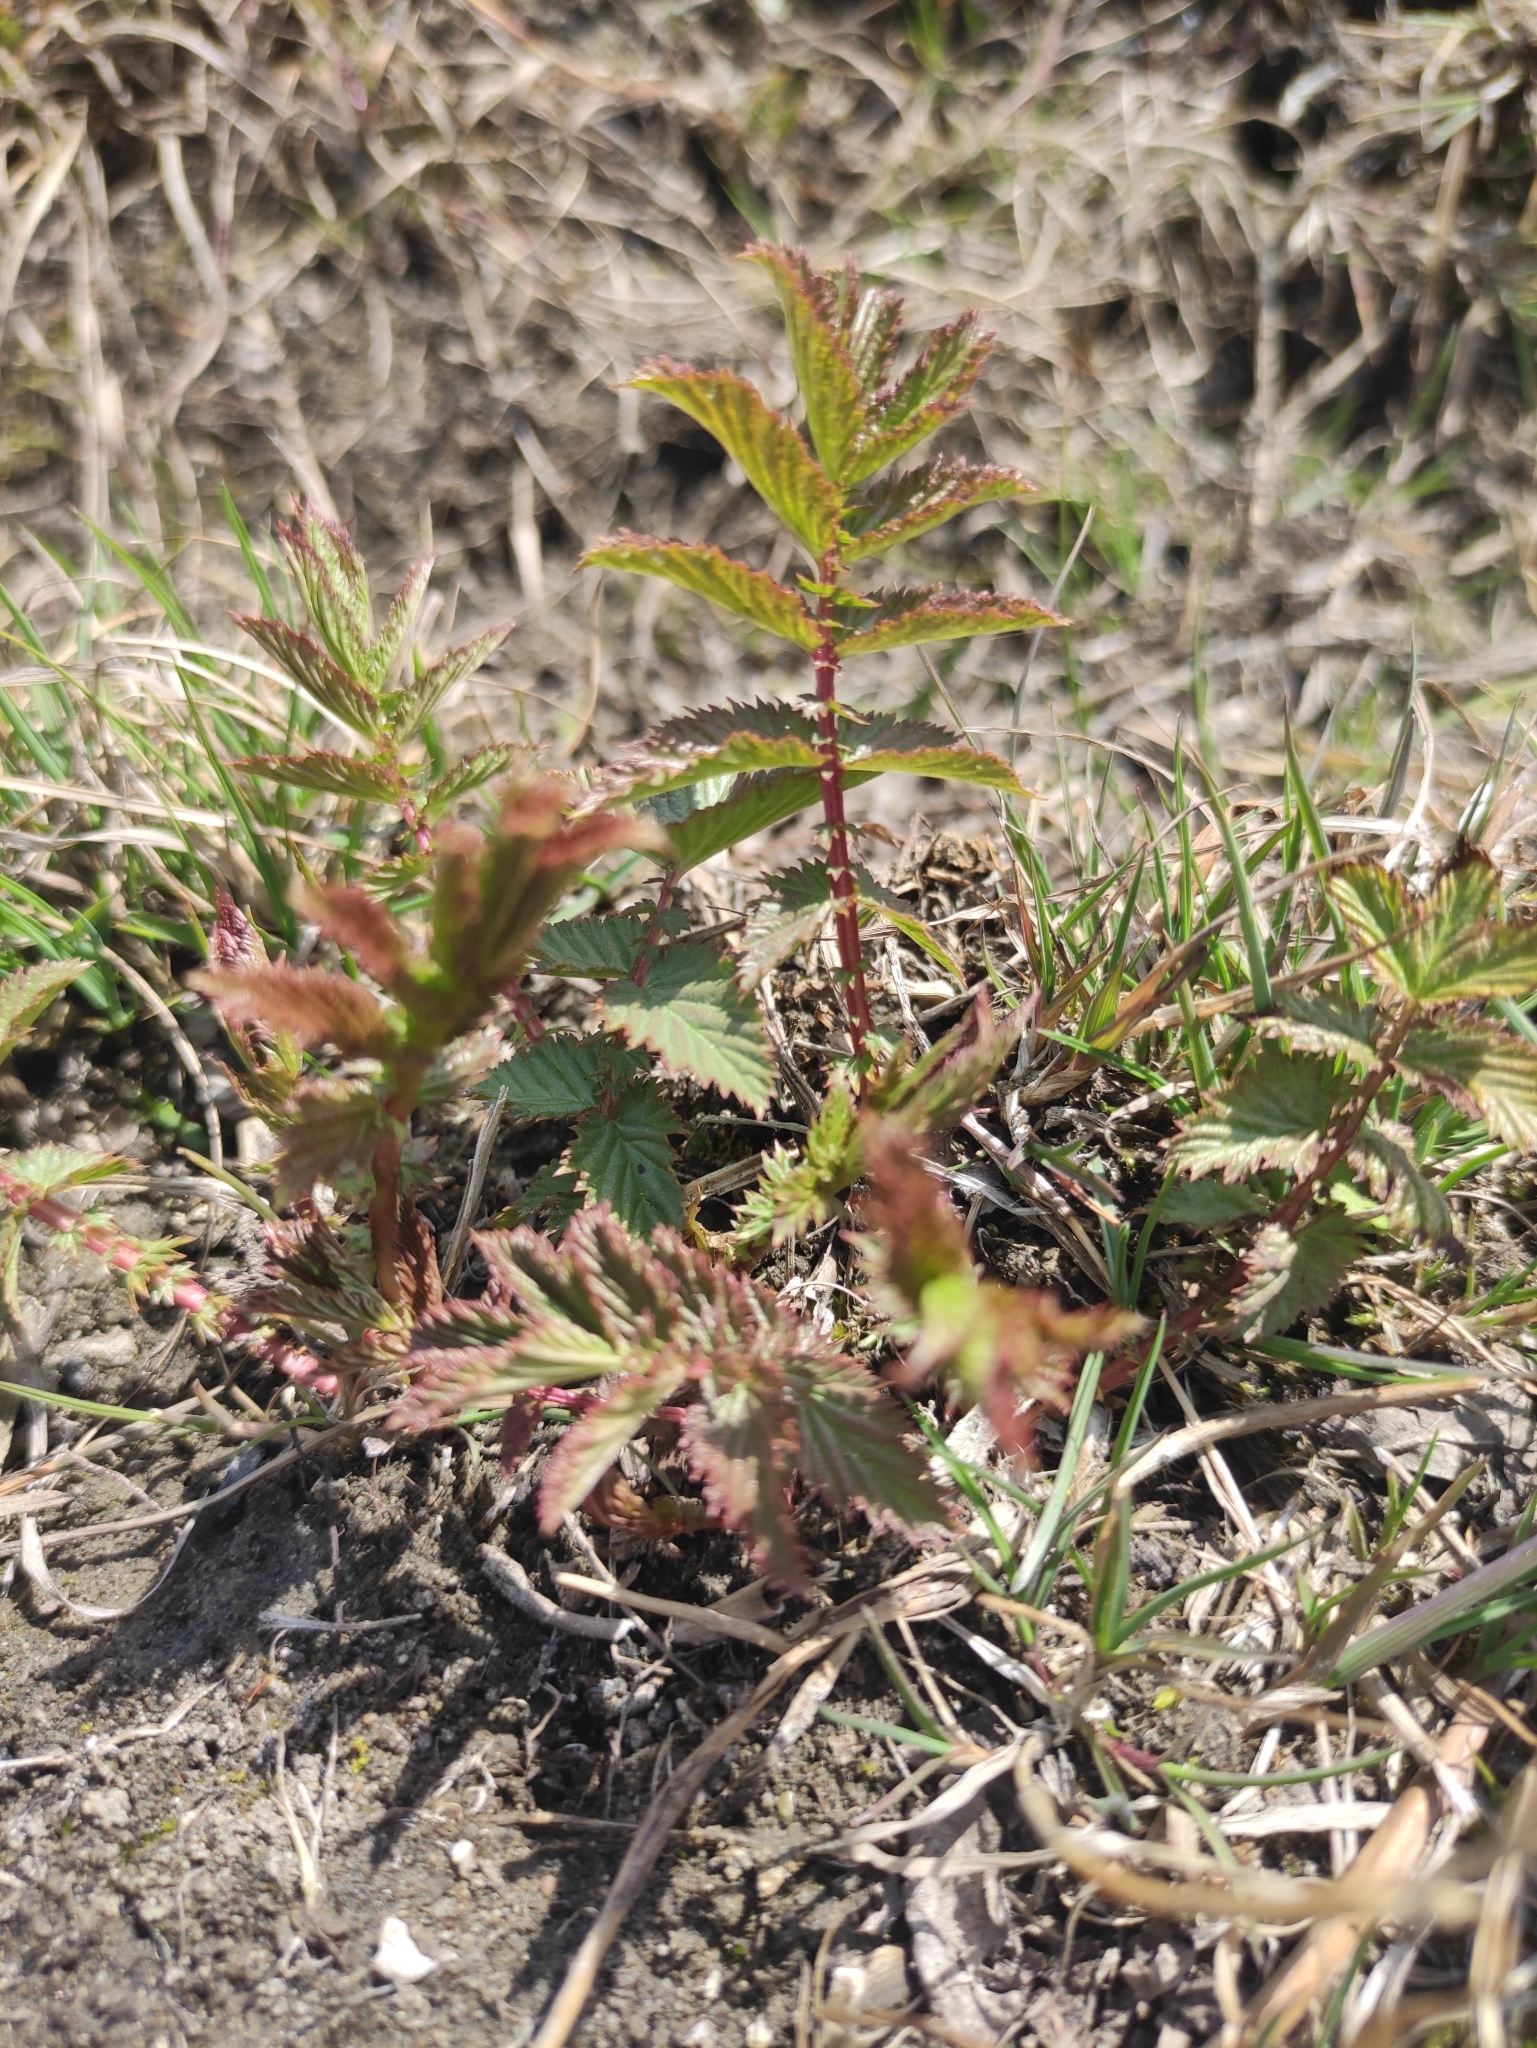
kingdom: Plantae
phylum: Tracheophyta
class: Magnoliopsida
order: Rosales
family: Rosaceae
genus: Filipendula
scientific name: Filipendula ulmaria
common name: Meadowsweet
